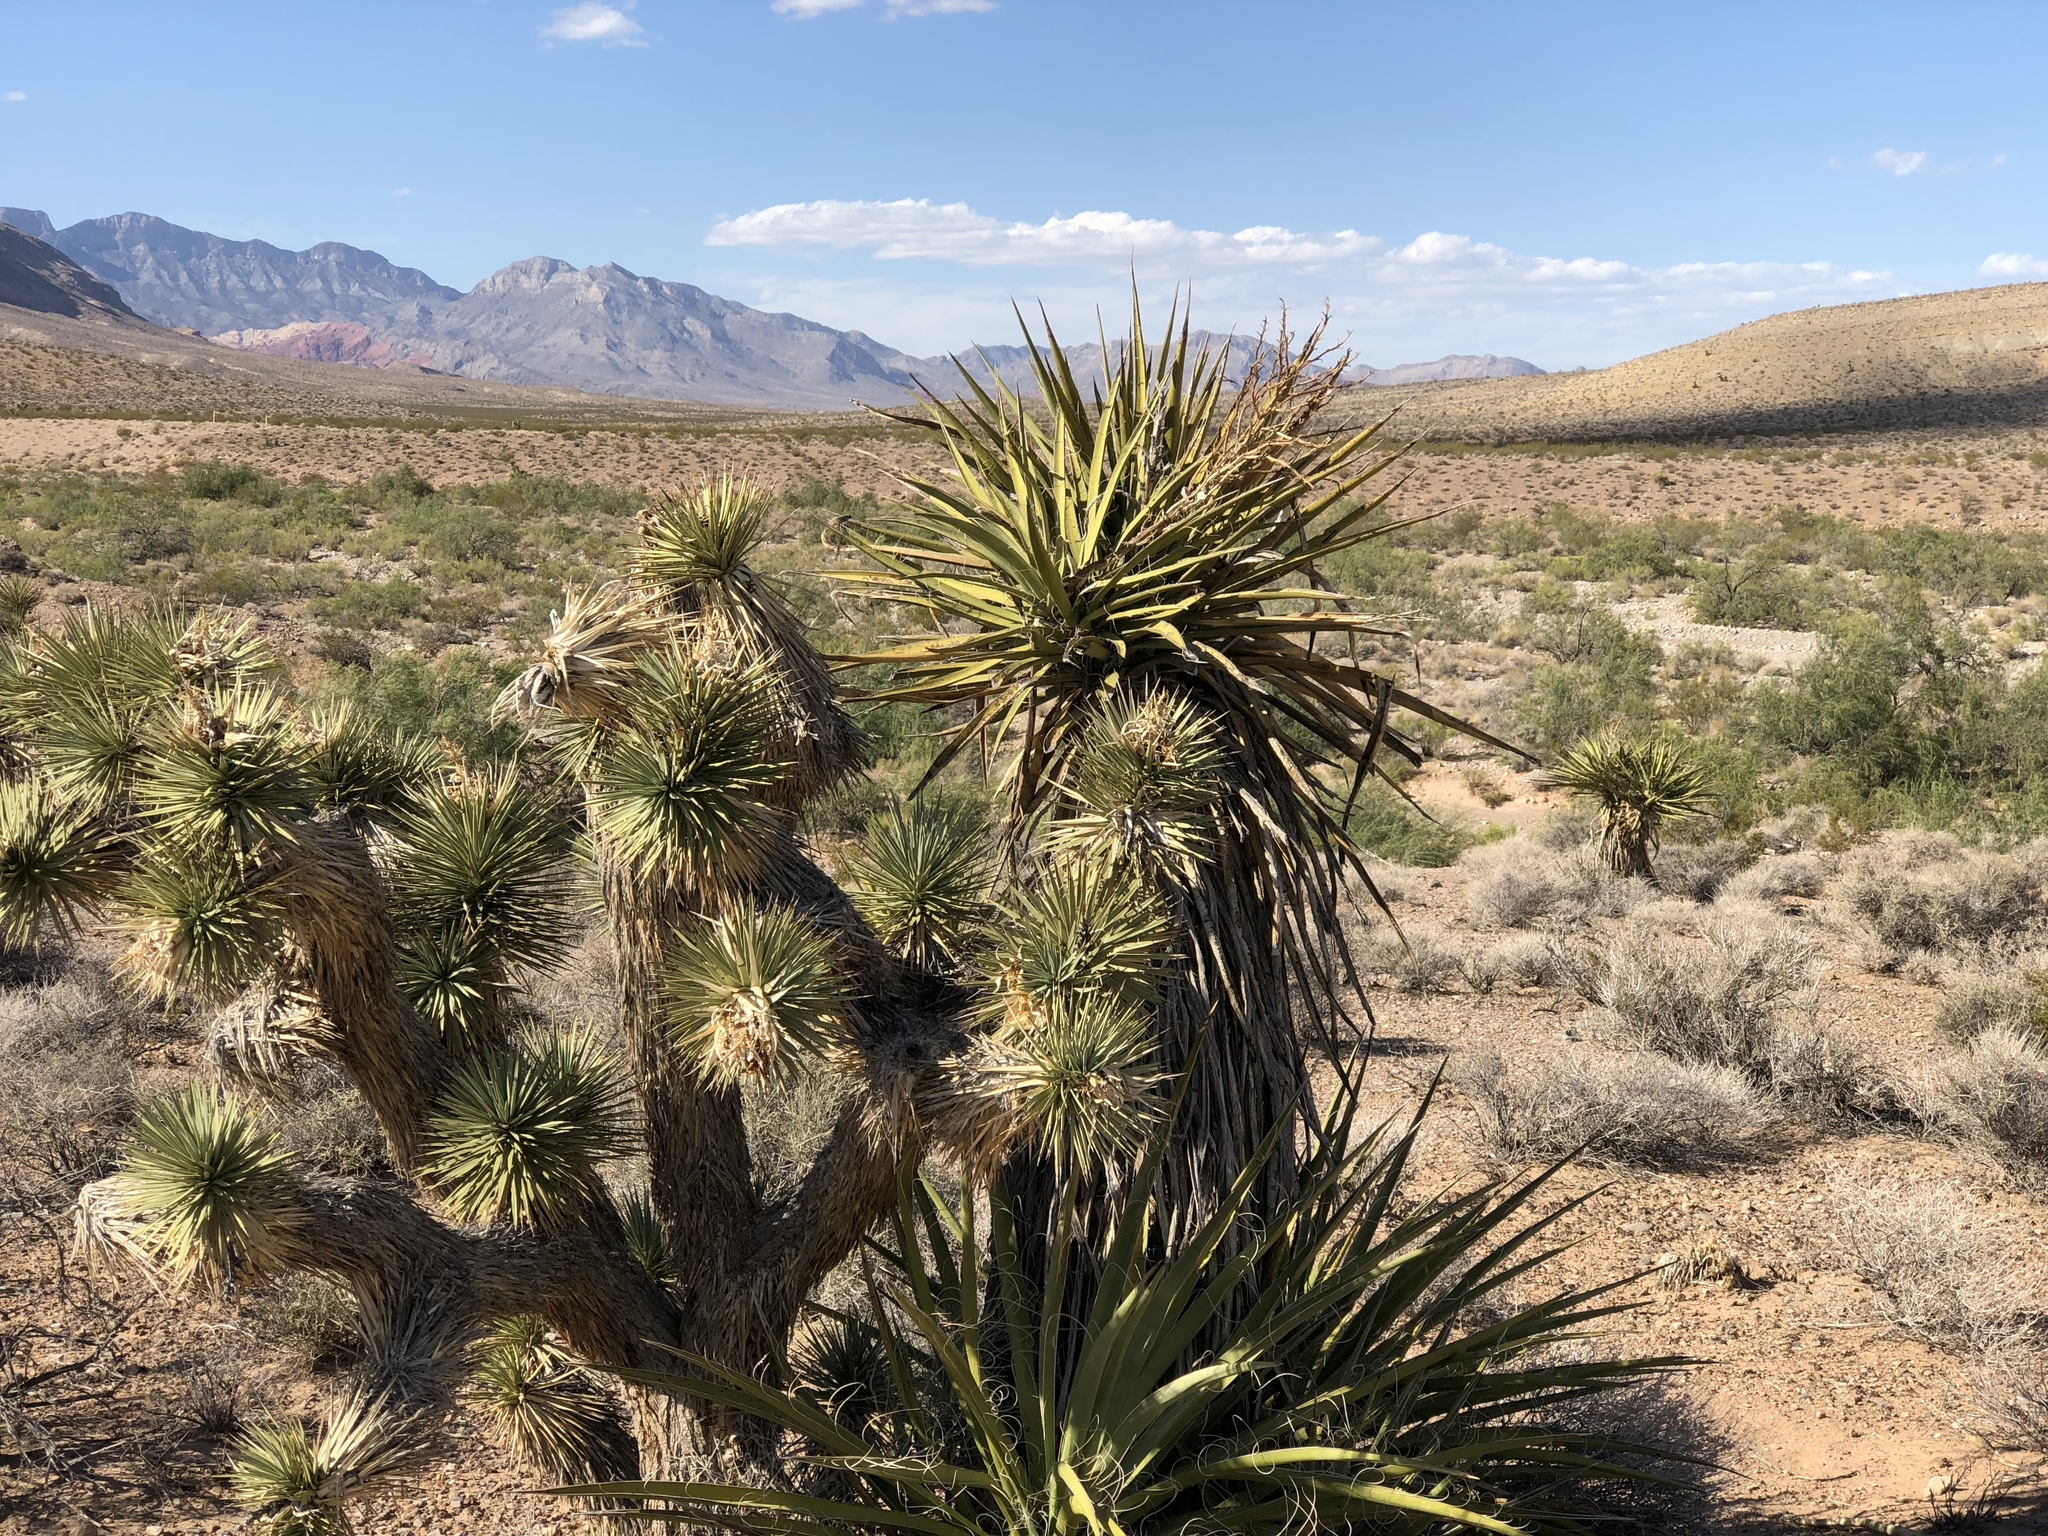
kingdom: Plantae
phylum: Tracheophyta
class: Liliopsida
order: Asparagales
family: Asparagaceae
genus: Yucca
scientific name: Yucca schidigera
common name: Mojave yucca
